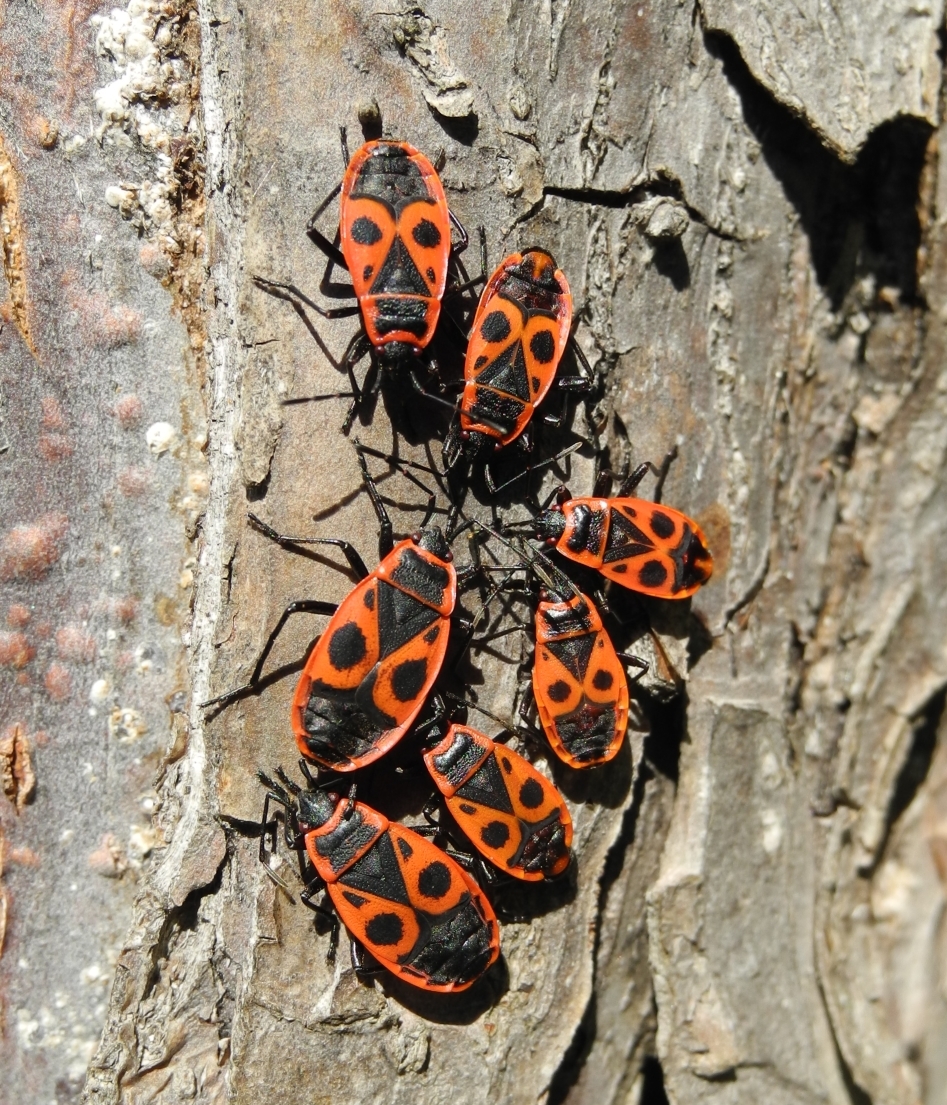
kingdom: Animalia
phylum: Arthropoda
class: Insecta
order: Hemiptera
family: Pyrrhocoridae
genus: Pyrrhocoris
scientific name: Pyrrhocoris apterus
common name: Firebug
